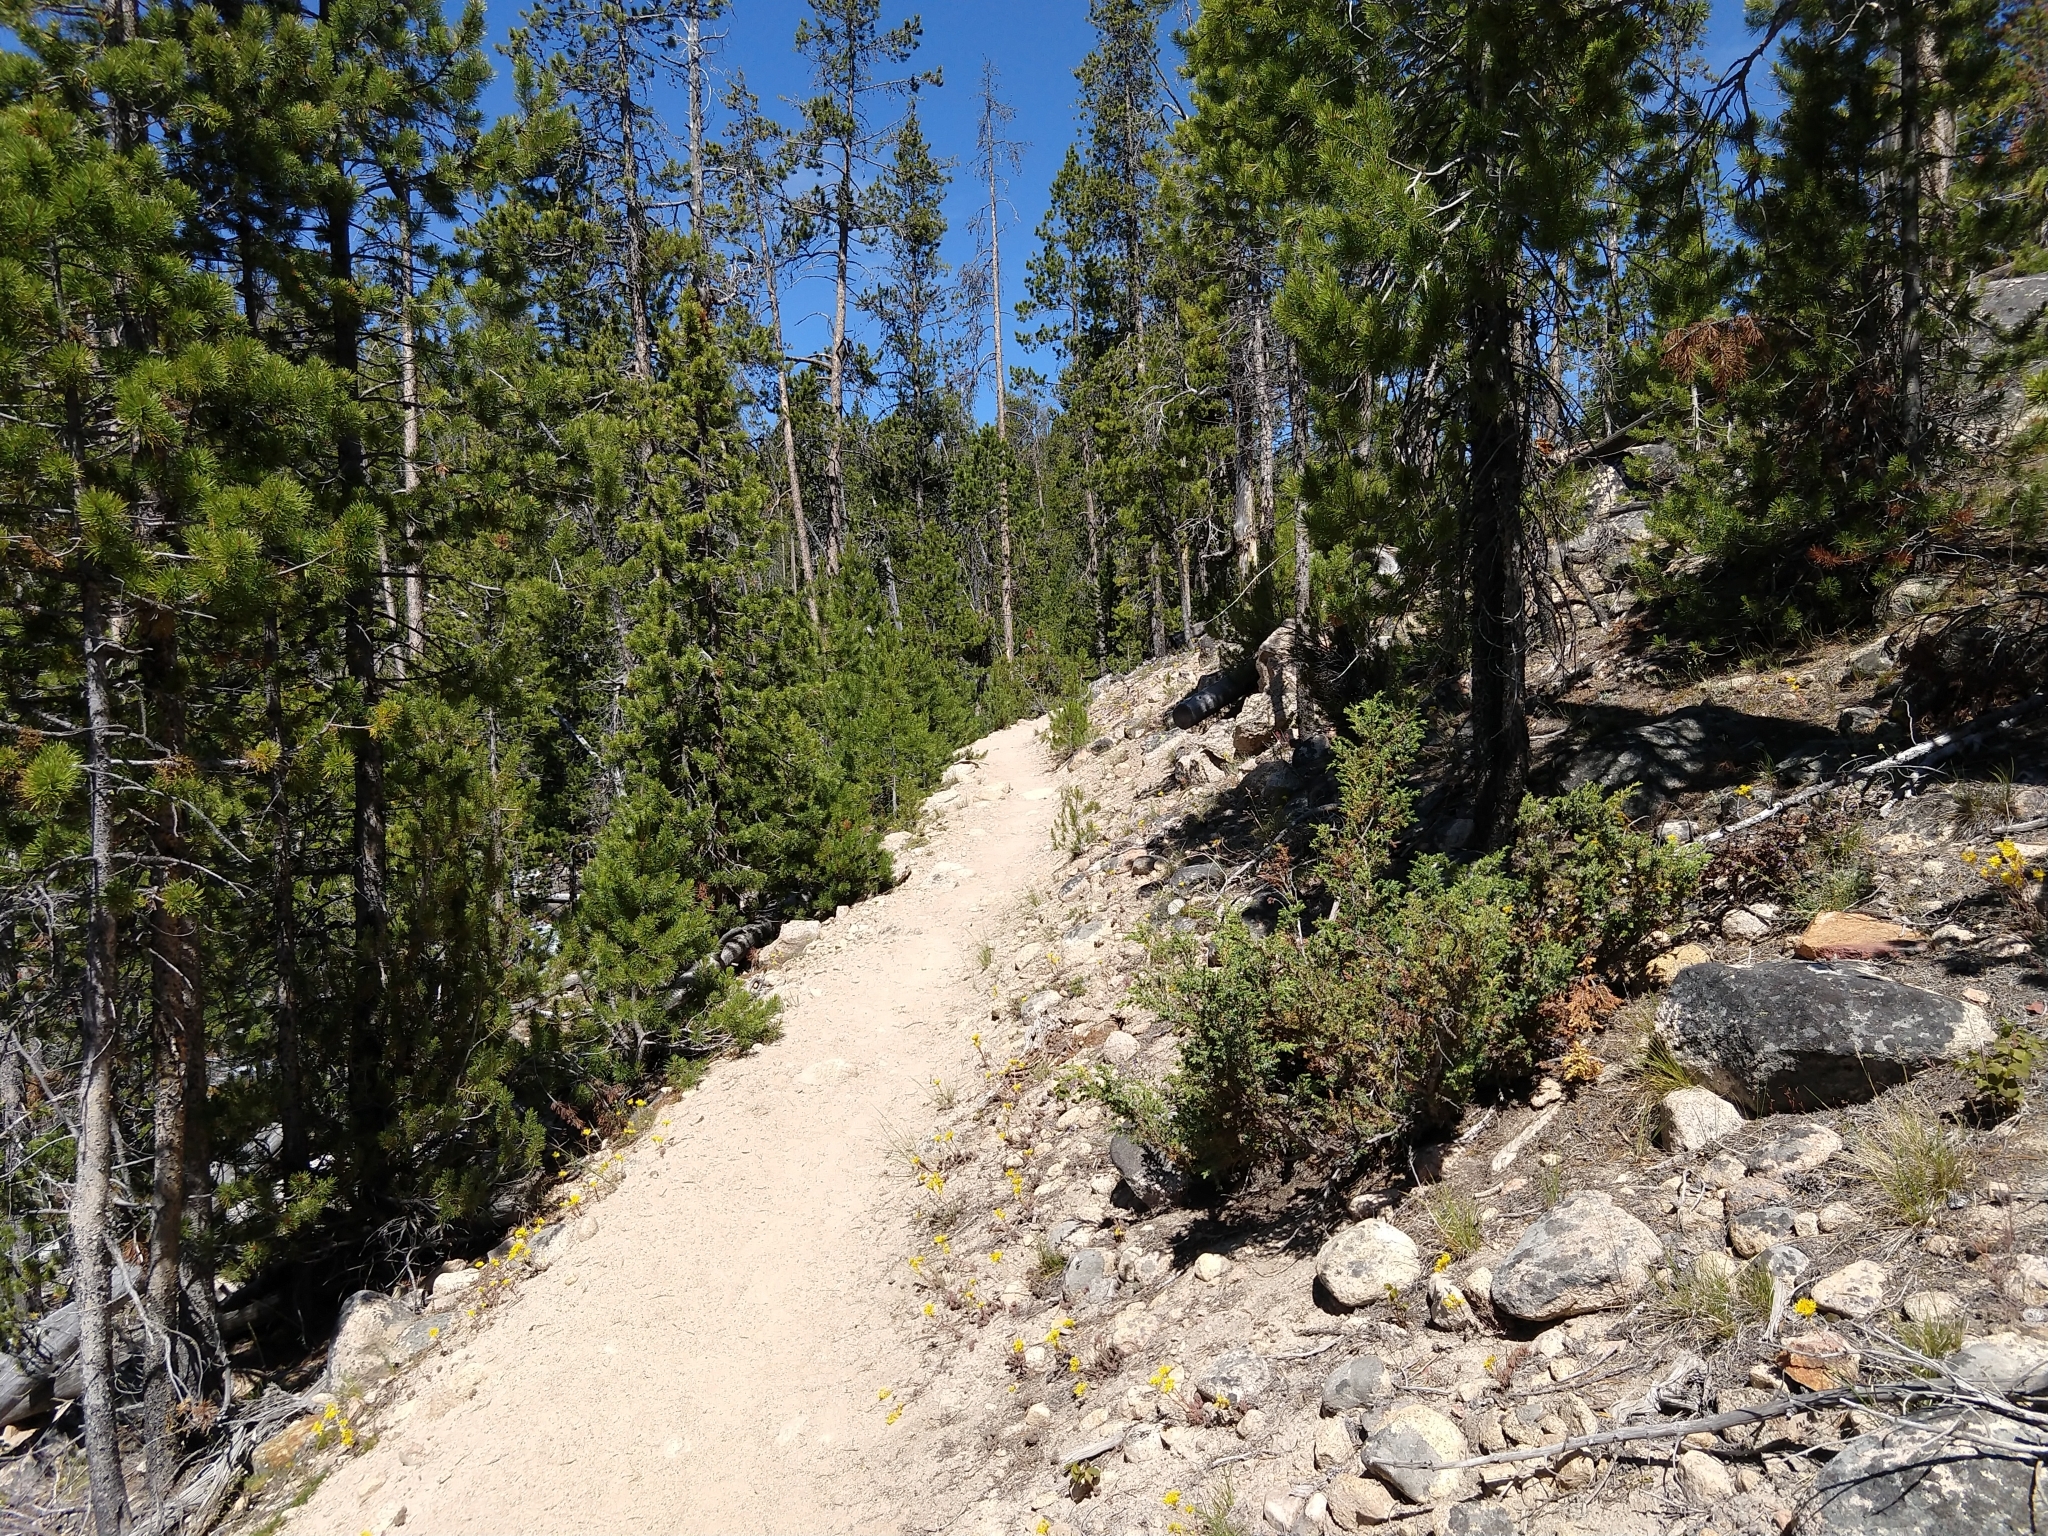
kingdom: Plantae
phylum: Tracheophyta
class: Pinopsida
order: Pinales
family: Cupressaceae
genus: Juniperus
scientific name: Juniperus communis
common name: Common juniper
